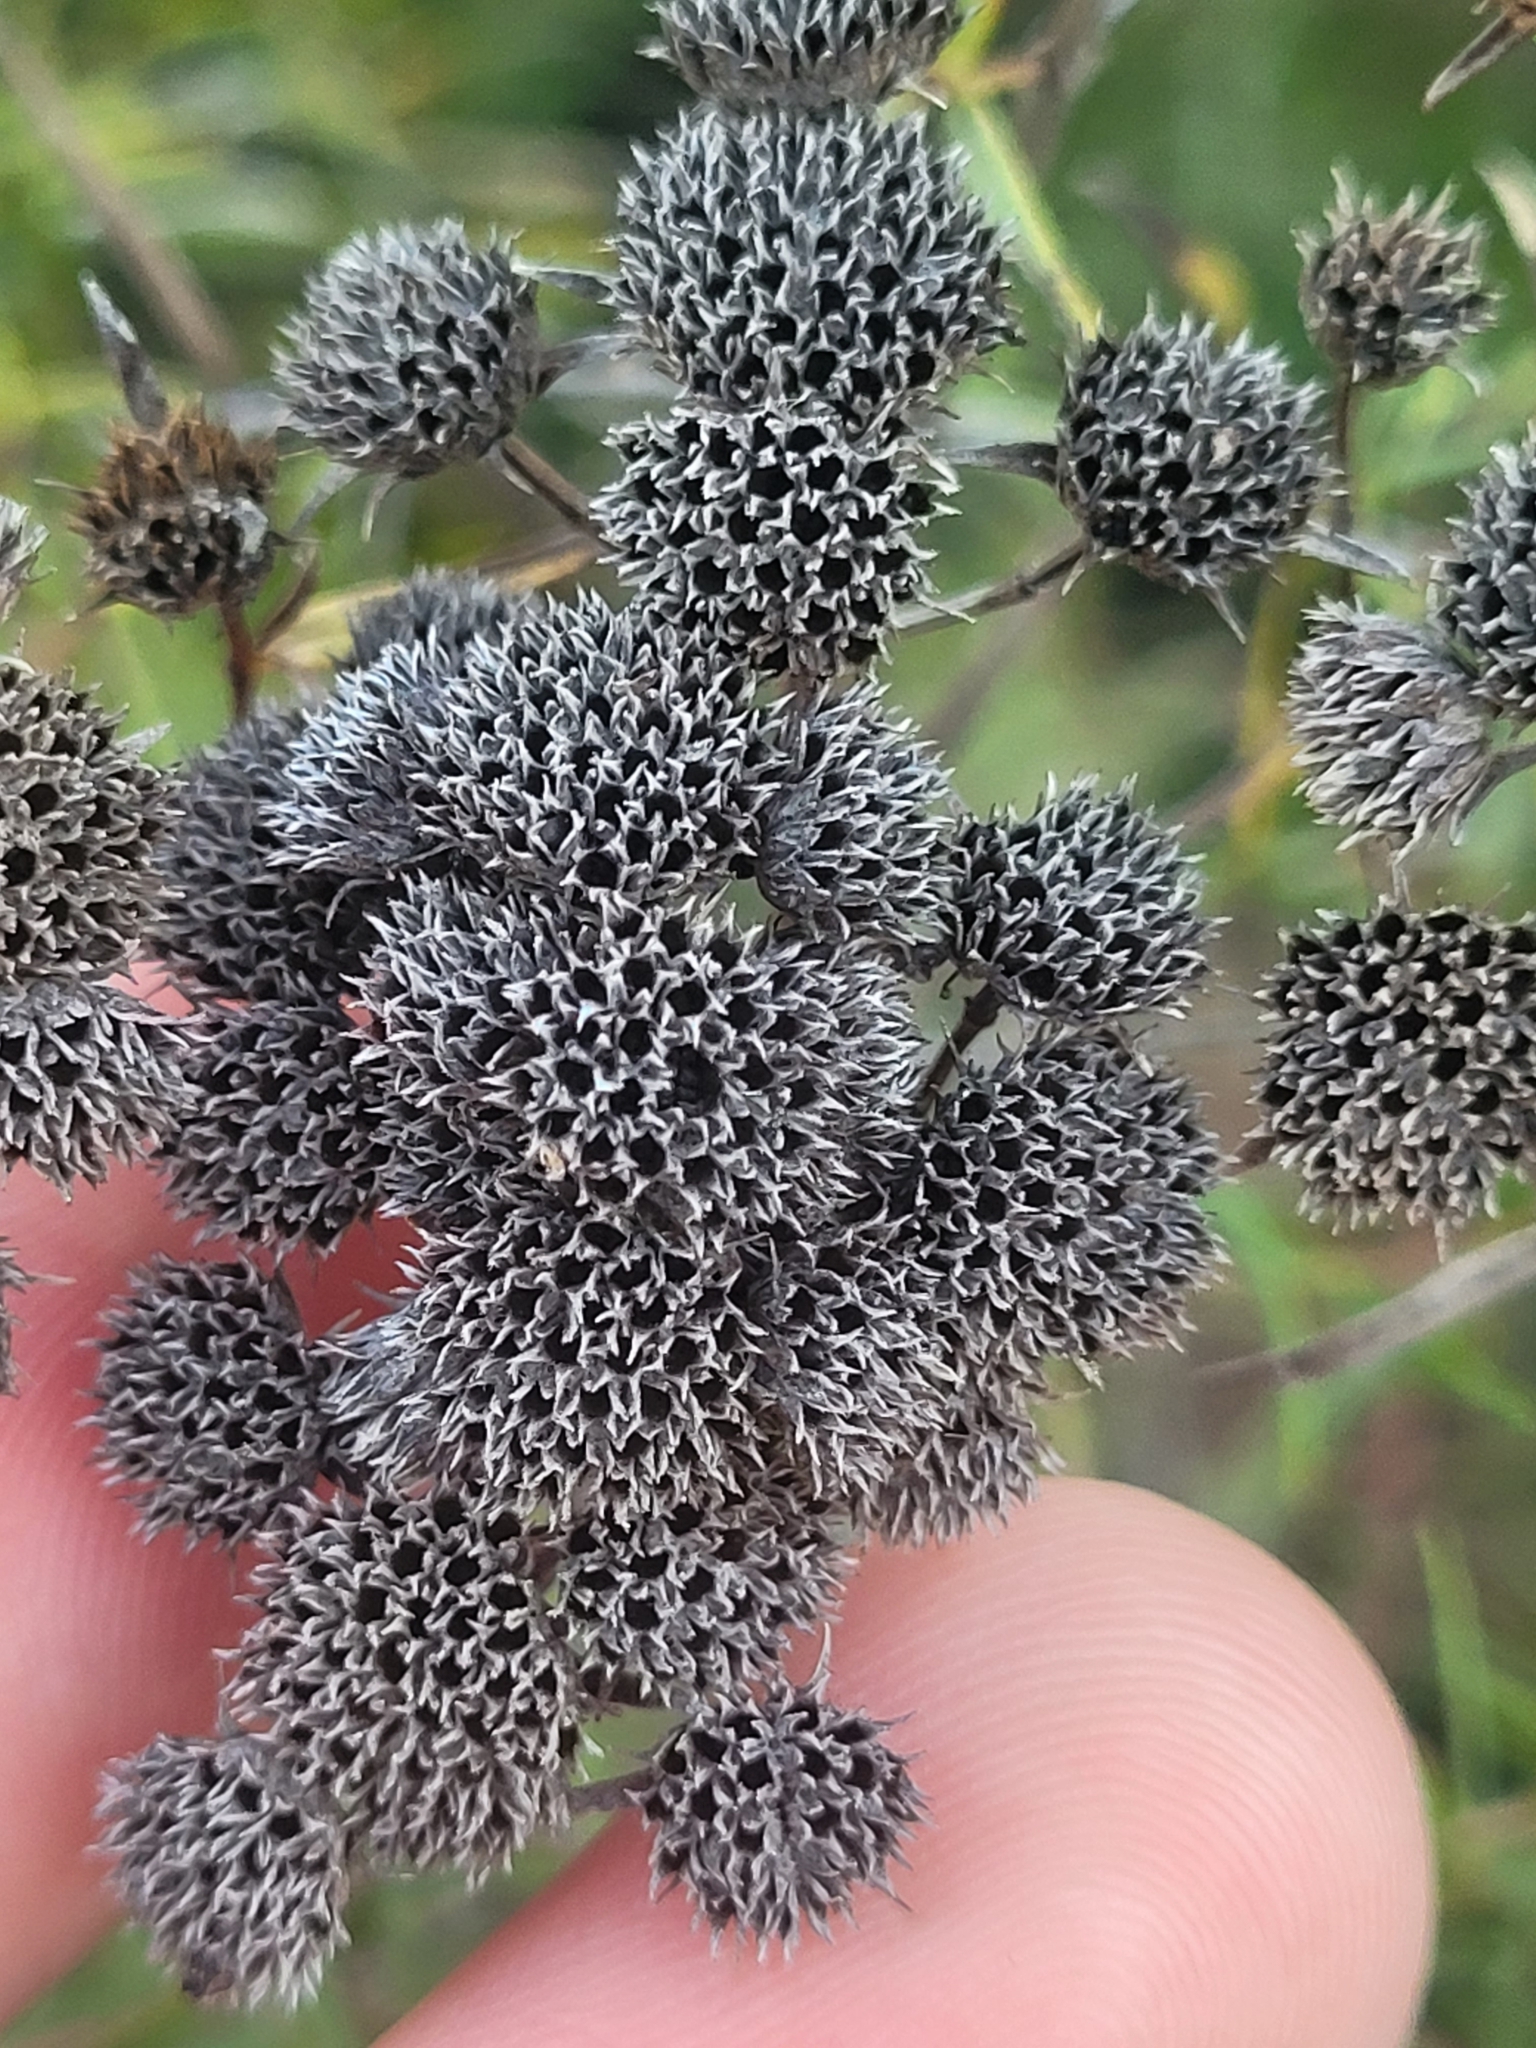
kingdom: Plantae
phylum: Tracheophyta
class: Magnoliopsida
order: Lamiales
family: Lamiaceae
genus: Pycnanthemum
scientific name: Pycnanthemum tenuifolium
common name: Narrow-leaf mountain-mint
